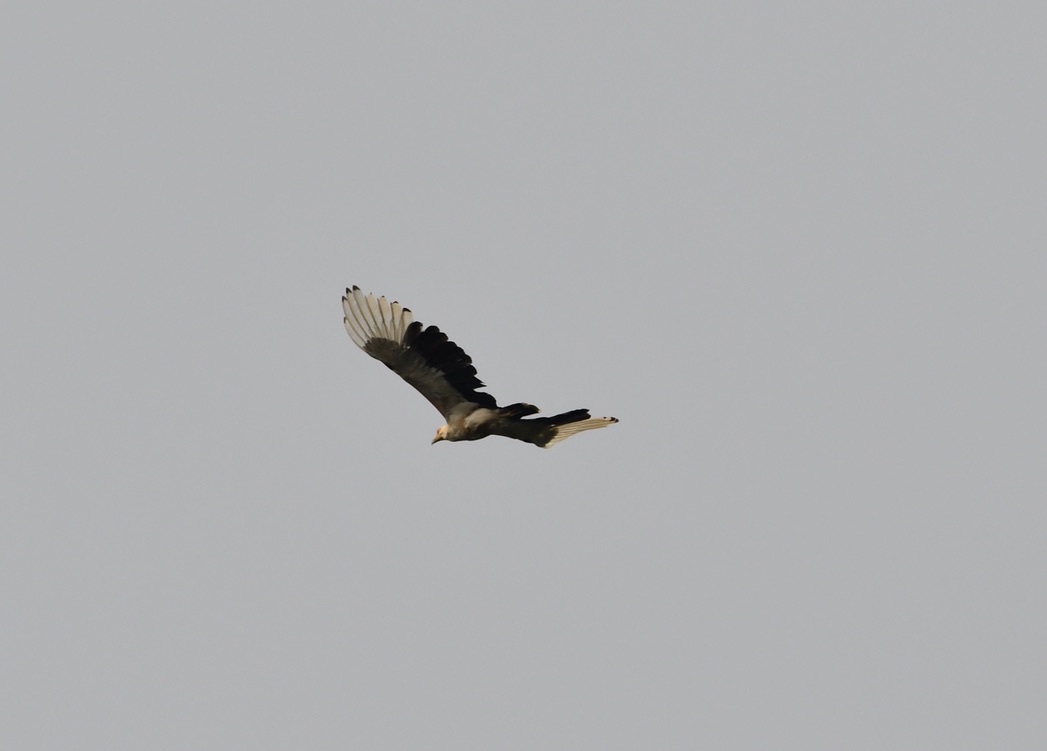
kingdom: Animalia
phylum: Chordata
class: Aves
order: Accipitriformes
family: Accipitridae
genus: Gypohierax
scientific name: Gypohierax angolensis
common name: Palm-nut vulture
